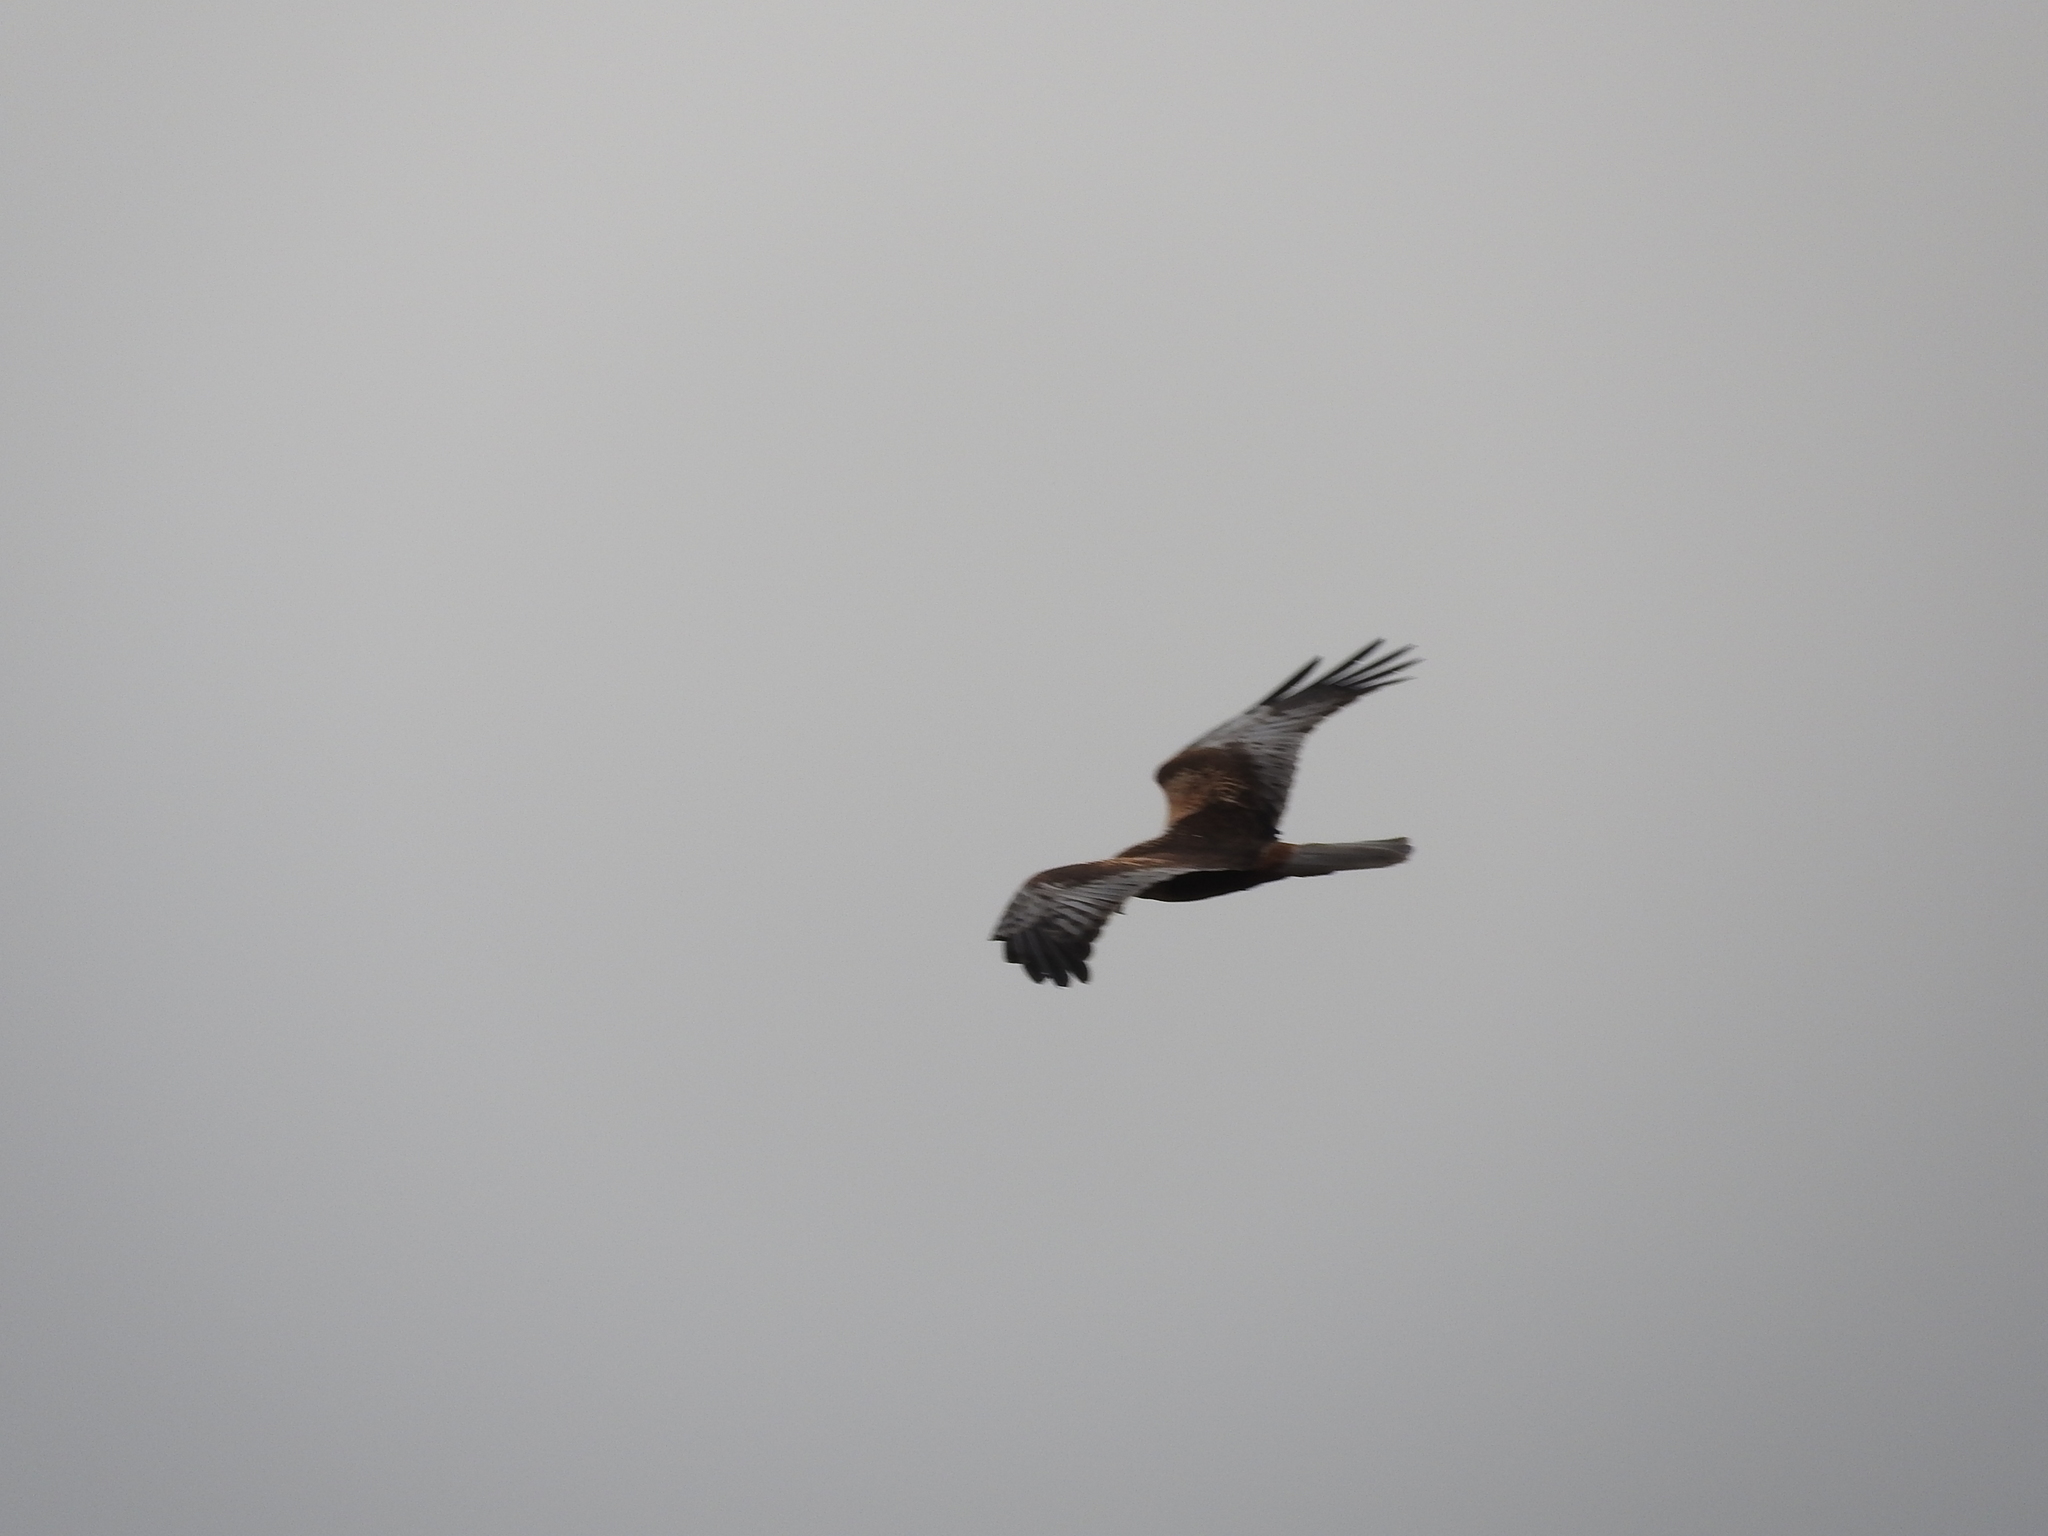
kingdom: Animalia
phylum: Chordata
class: Aves
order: Accipitriformes
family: Accipitridae
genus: Circus
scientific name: Circus aeruginosus
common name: Western marsh harrier
